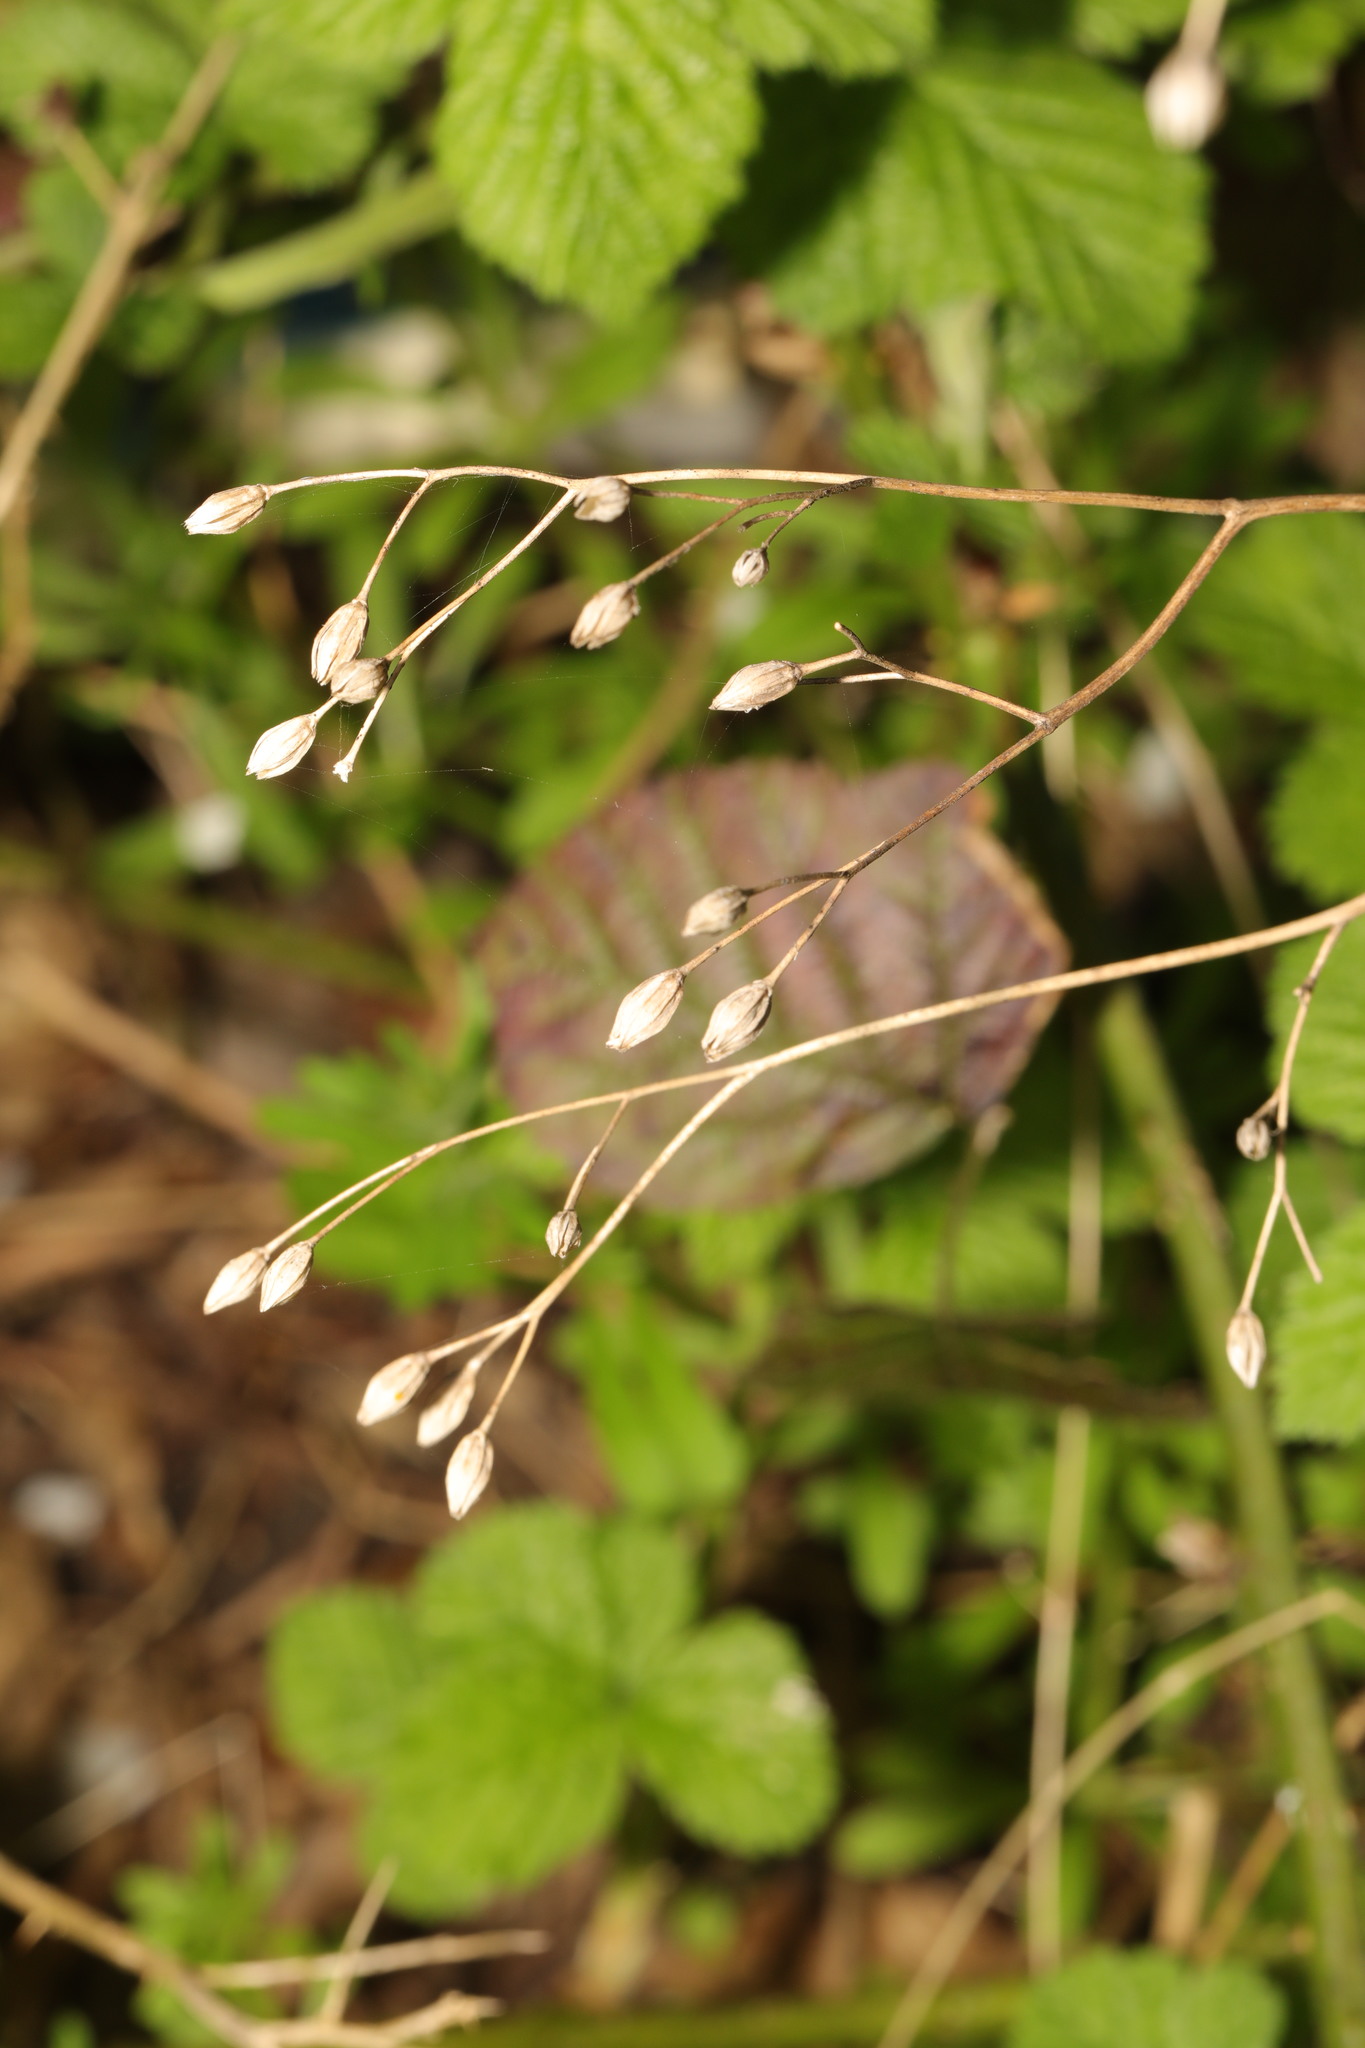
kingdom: Plantae
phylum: Tracheophyta
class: Magnoliopsida
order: Asterales
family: Asteraceae
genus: Lapsana
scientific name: Lapsana communis
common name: Nipplewort
